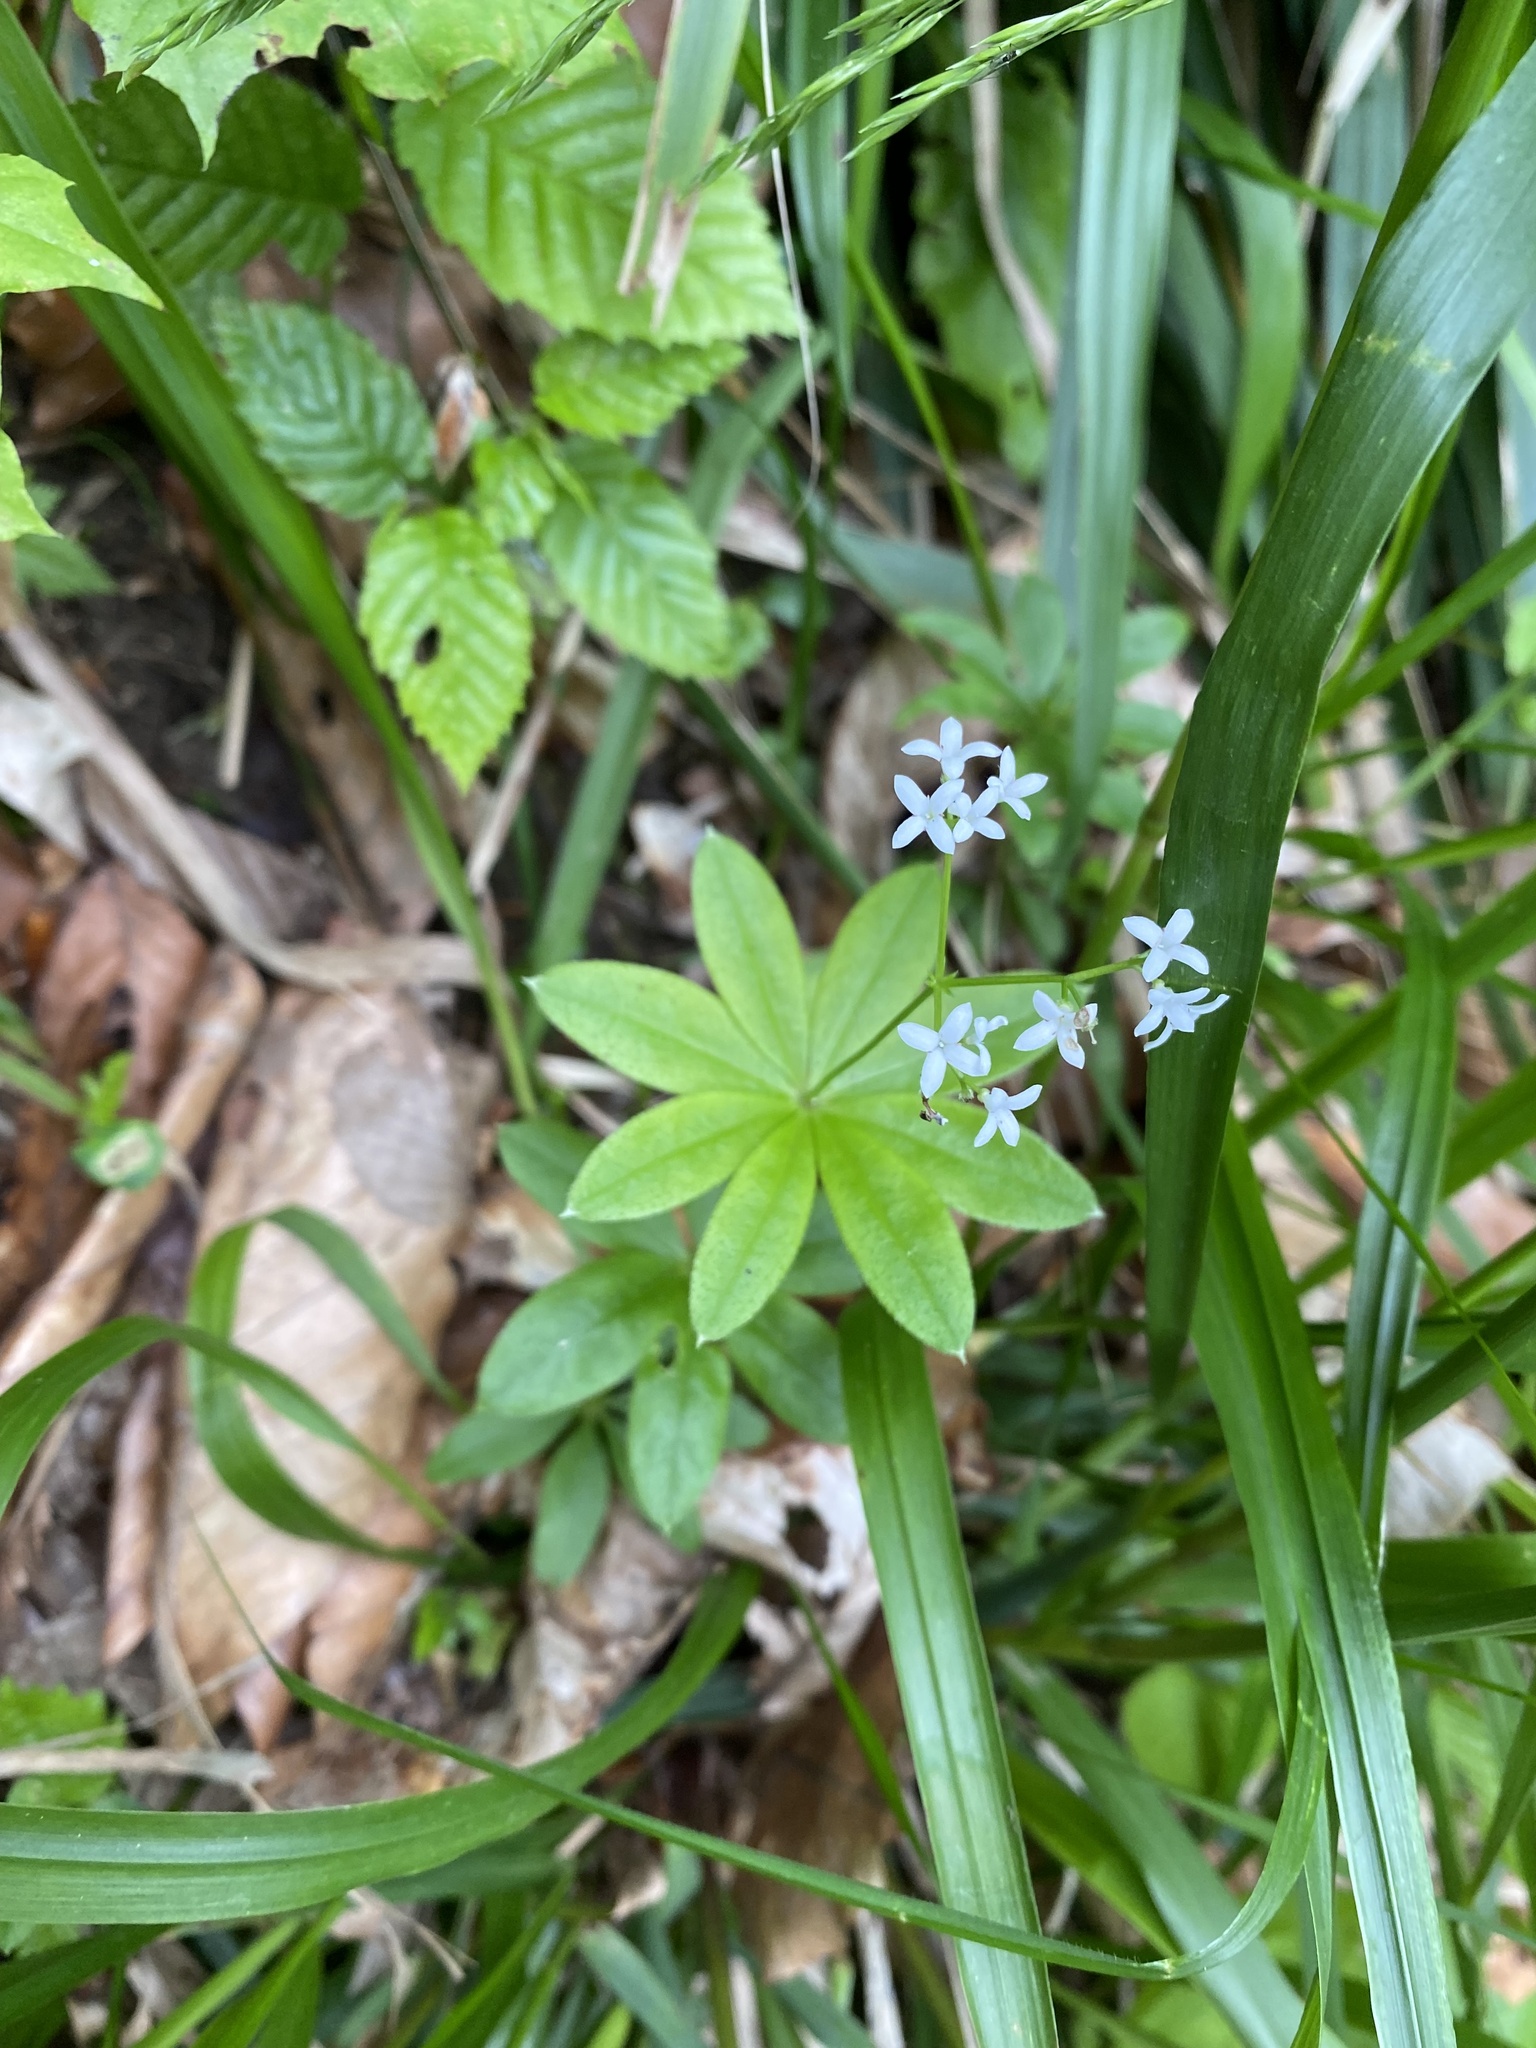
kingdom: Plantae
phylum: Tracheophyta
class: Magnoliopsida
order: Gentianales
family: Rubiaceae
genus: Galium
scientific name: Galium odoratum
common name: Sweet woodruff
